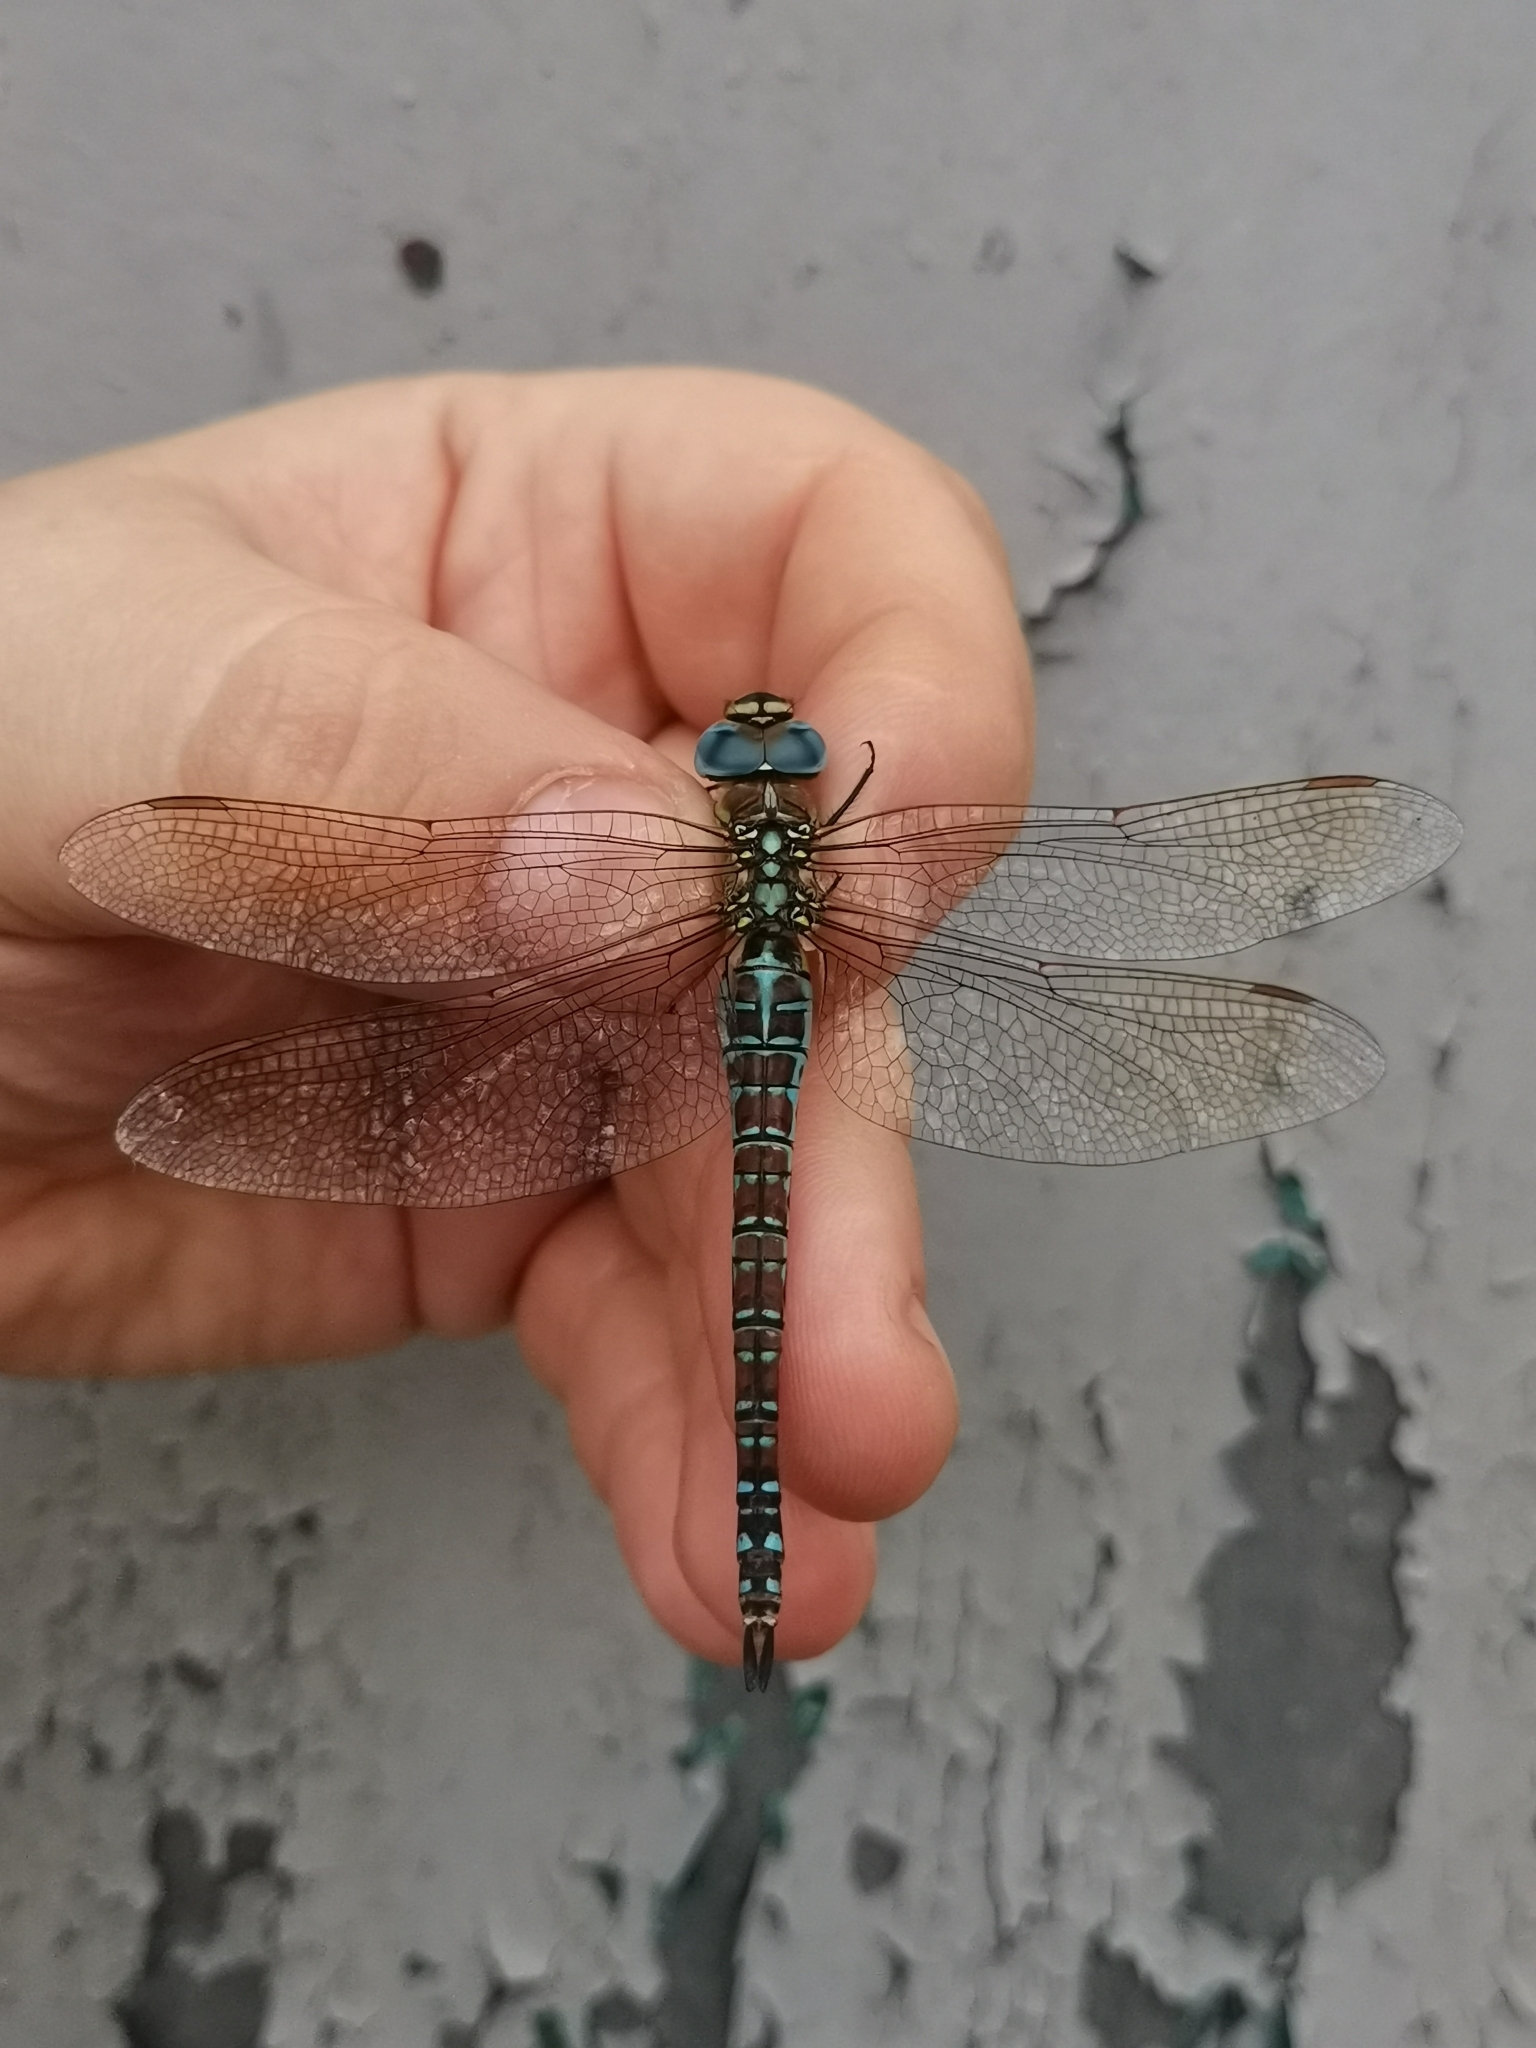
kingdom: Animalia
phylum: Arthropoda
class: Insecta
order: Odonata
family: Aeshnidae
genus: Aeshna
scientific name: Aeshna affinis
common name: Southern migrant hawker
